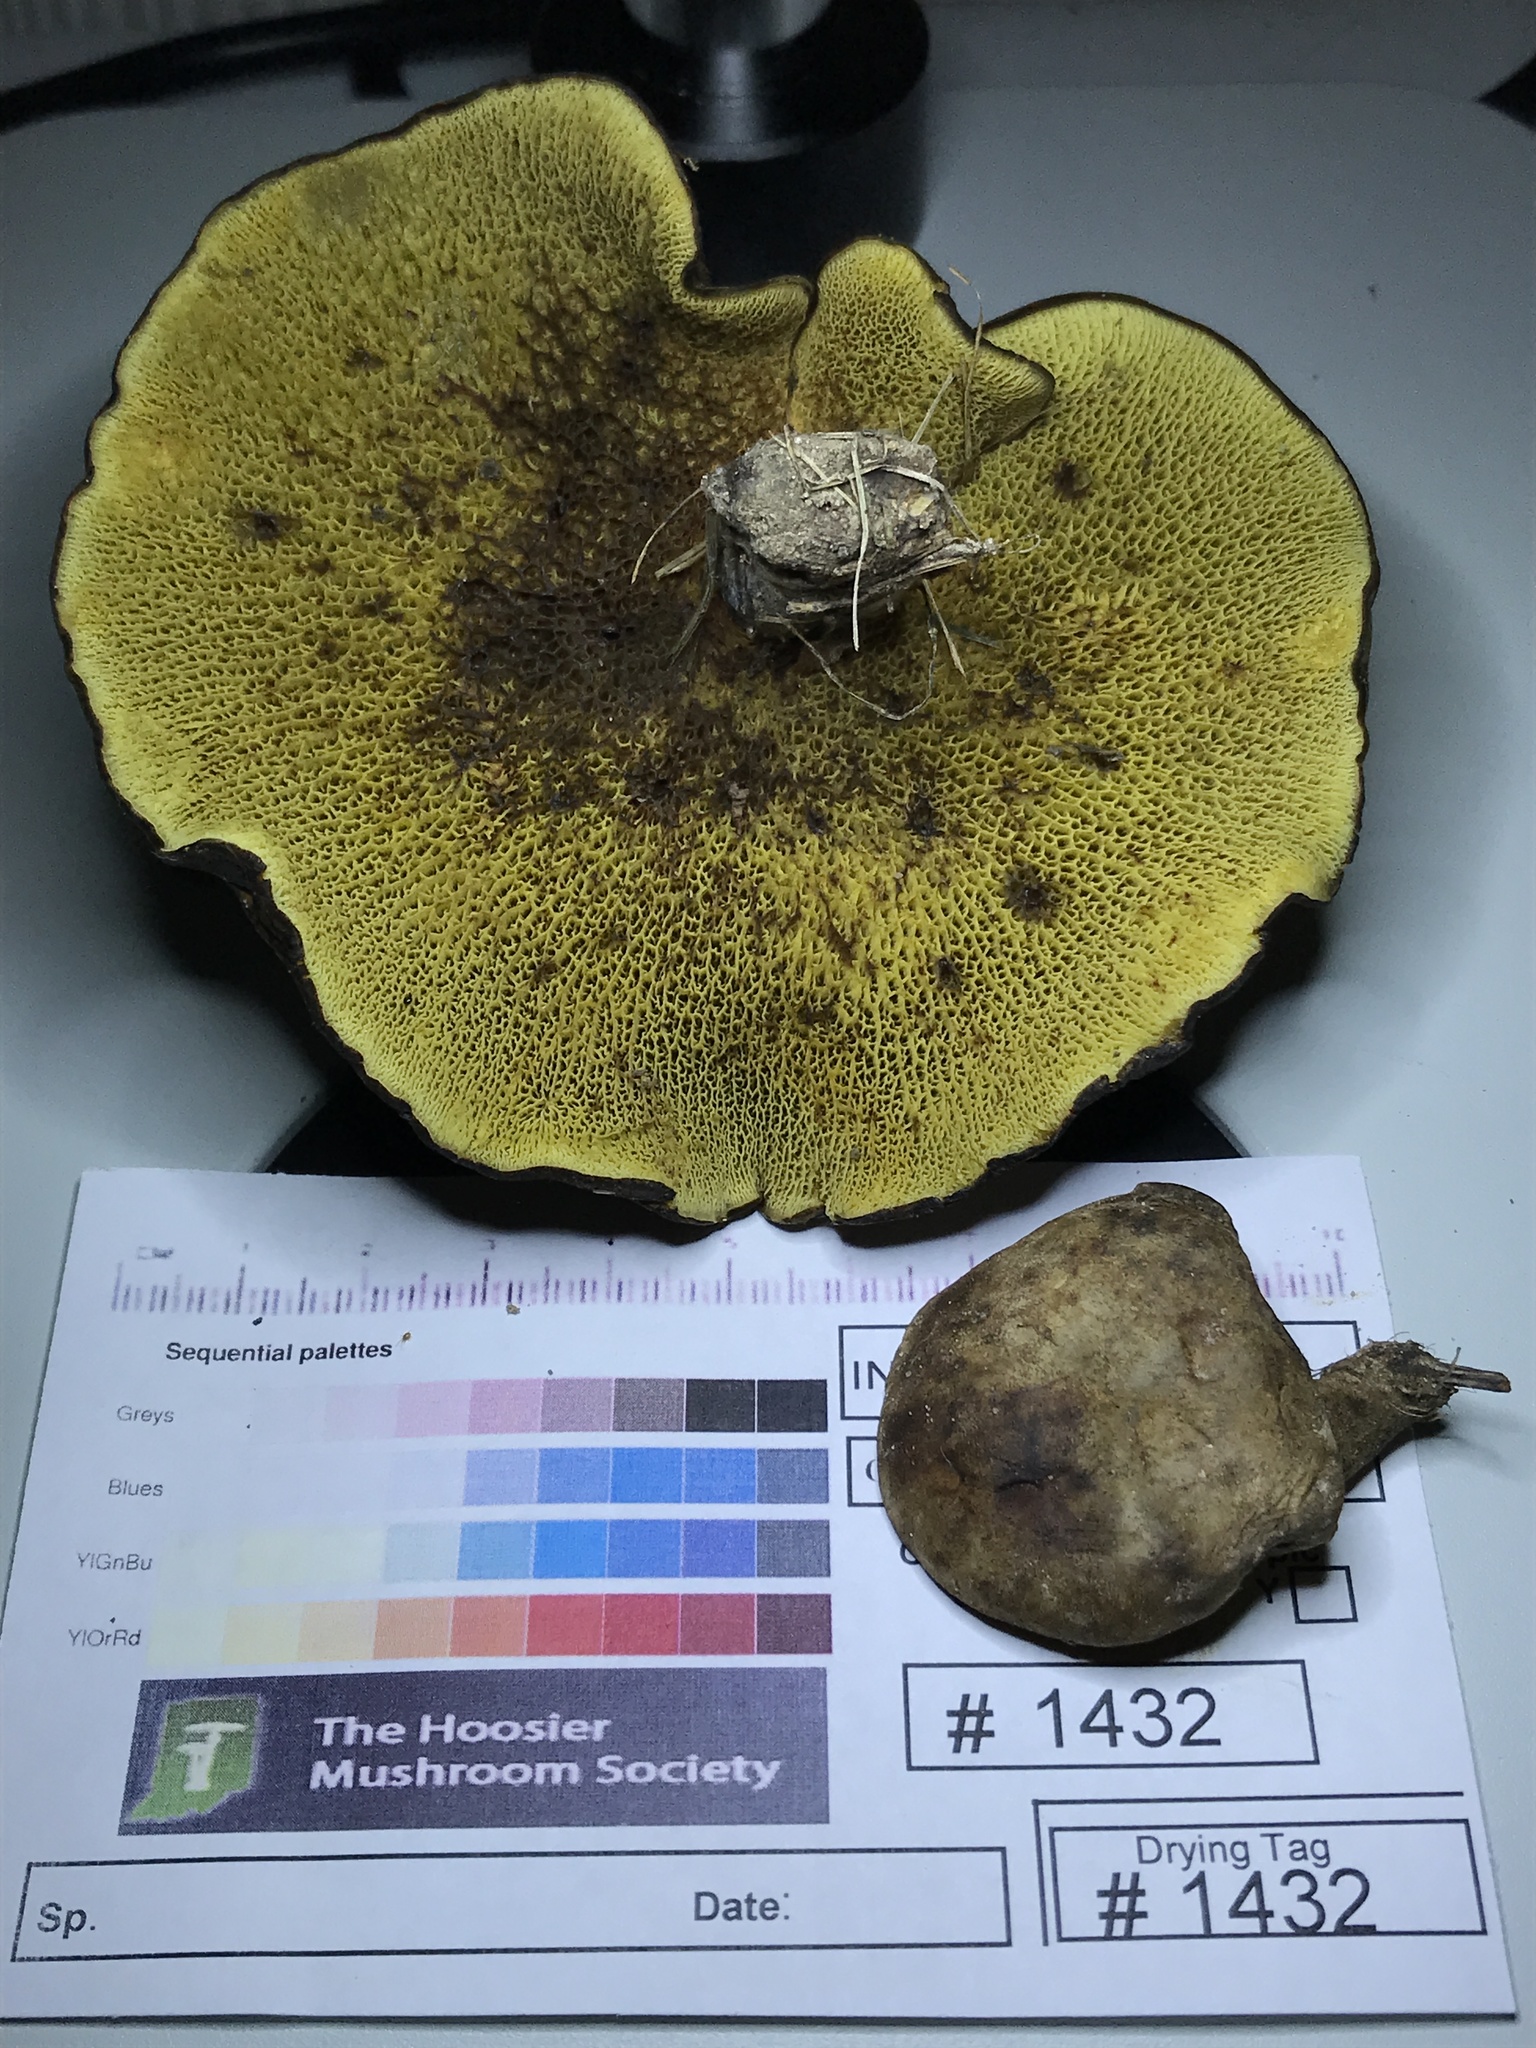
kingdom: Fungi
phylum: Basidiomycota
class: Agaricomycetes
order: Boletales
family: Boletinellaceae
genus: Boletinellus
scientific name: Boletinellus merulioides
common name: Ash tree bolete
